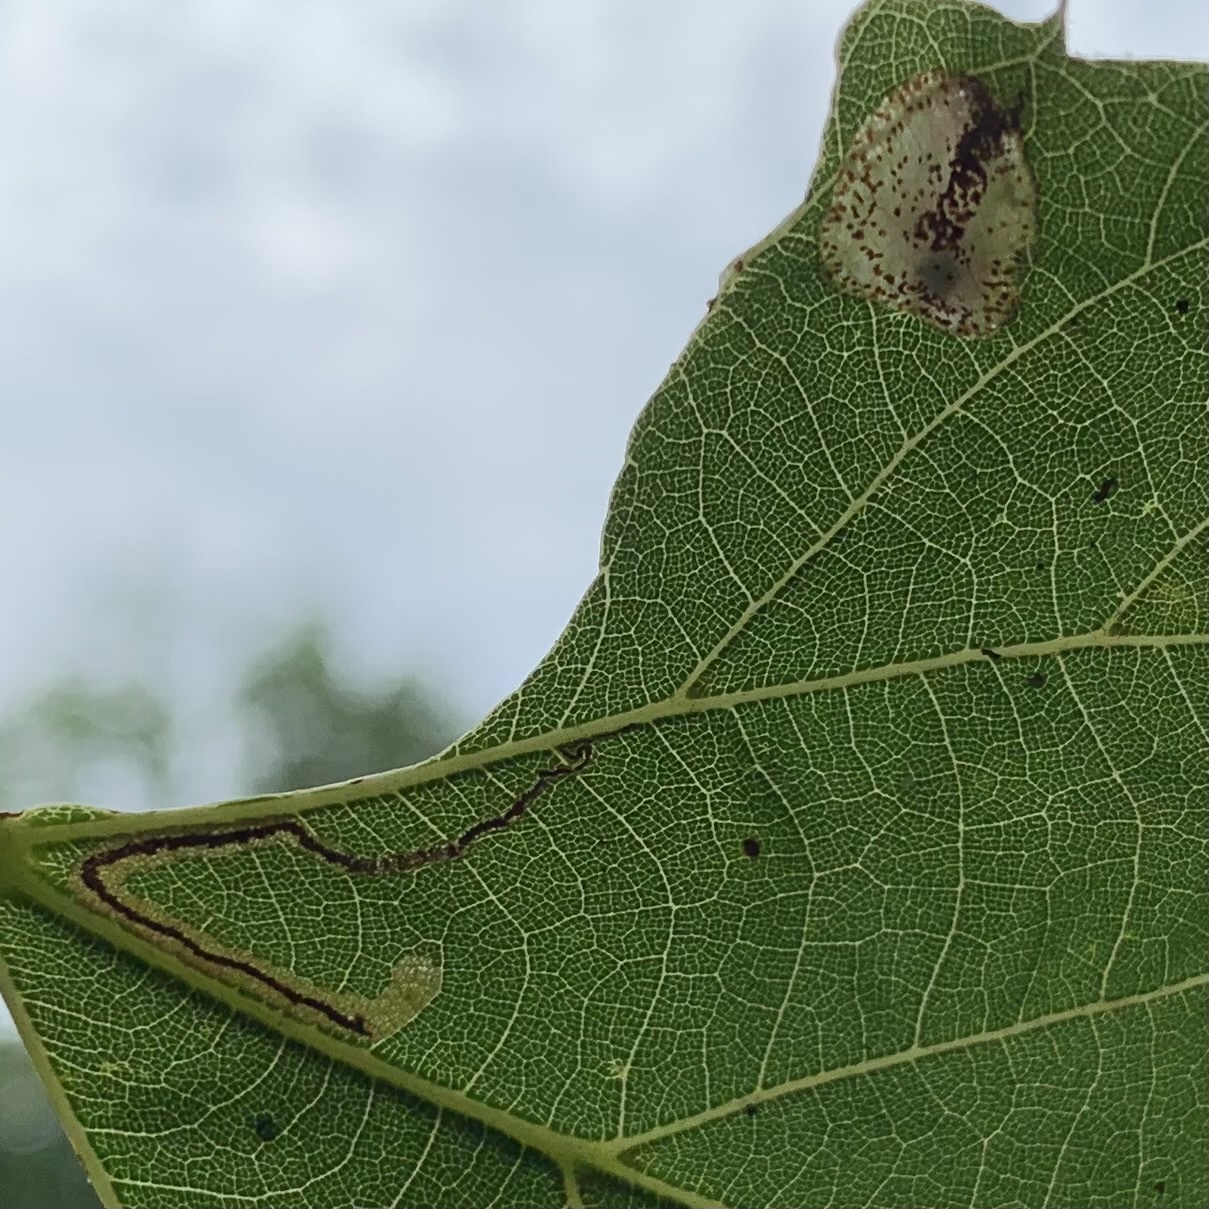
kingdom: Animalia
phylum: Arthropoda
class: Insecta
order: Lepidoptera
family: Nepticulidae
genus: Stigmella
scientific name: Stigmella tiliella
